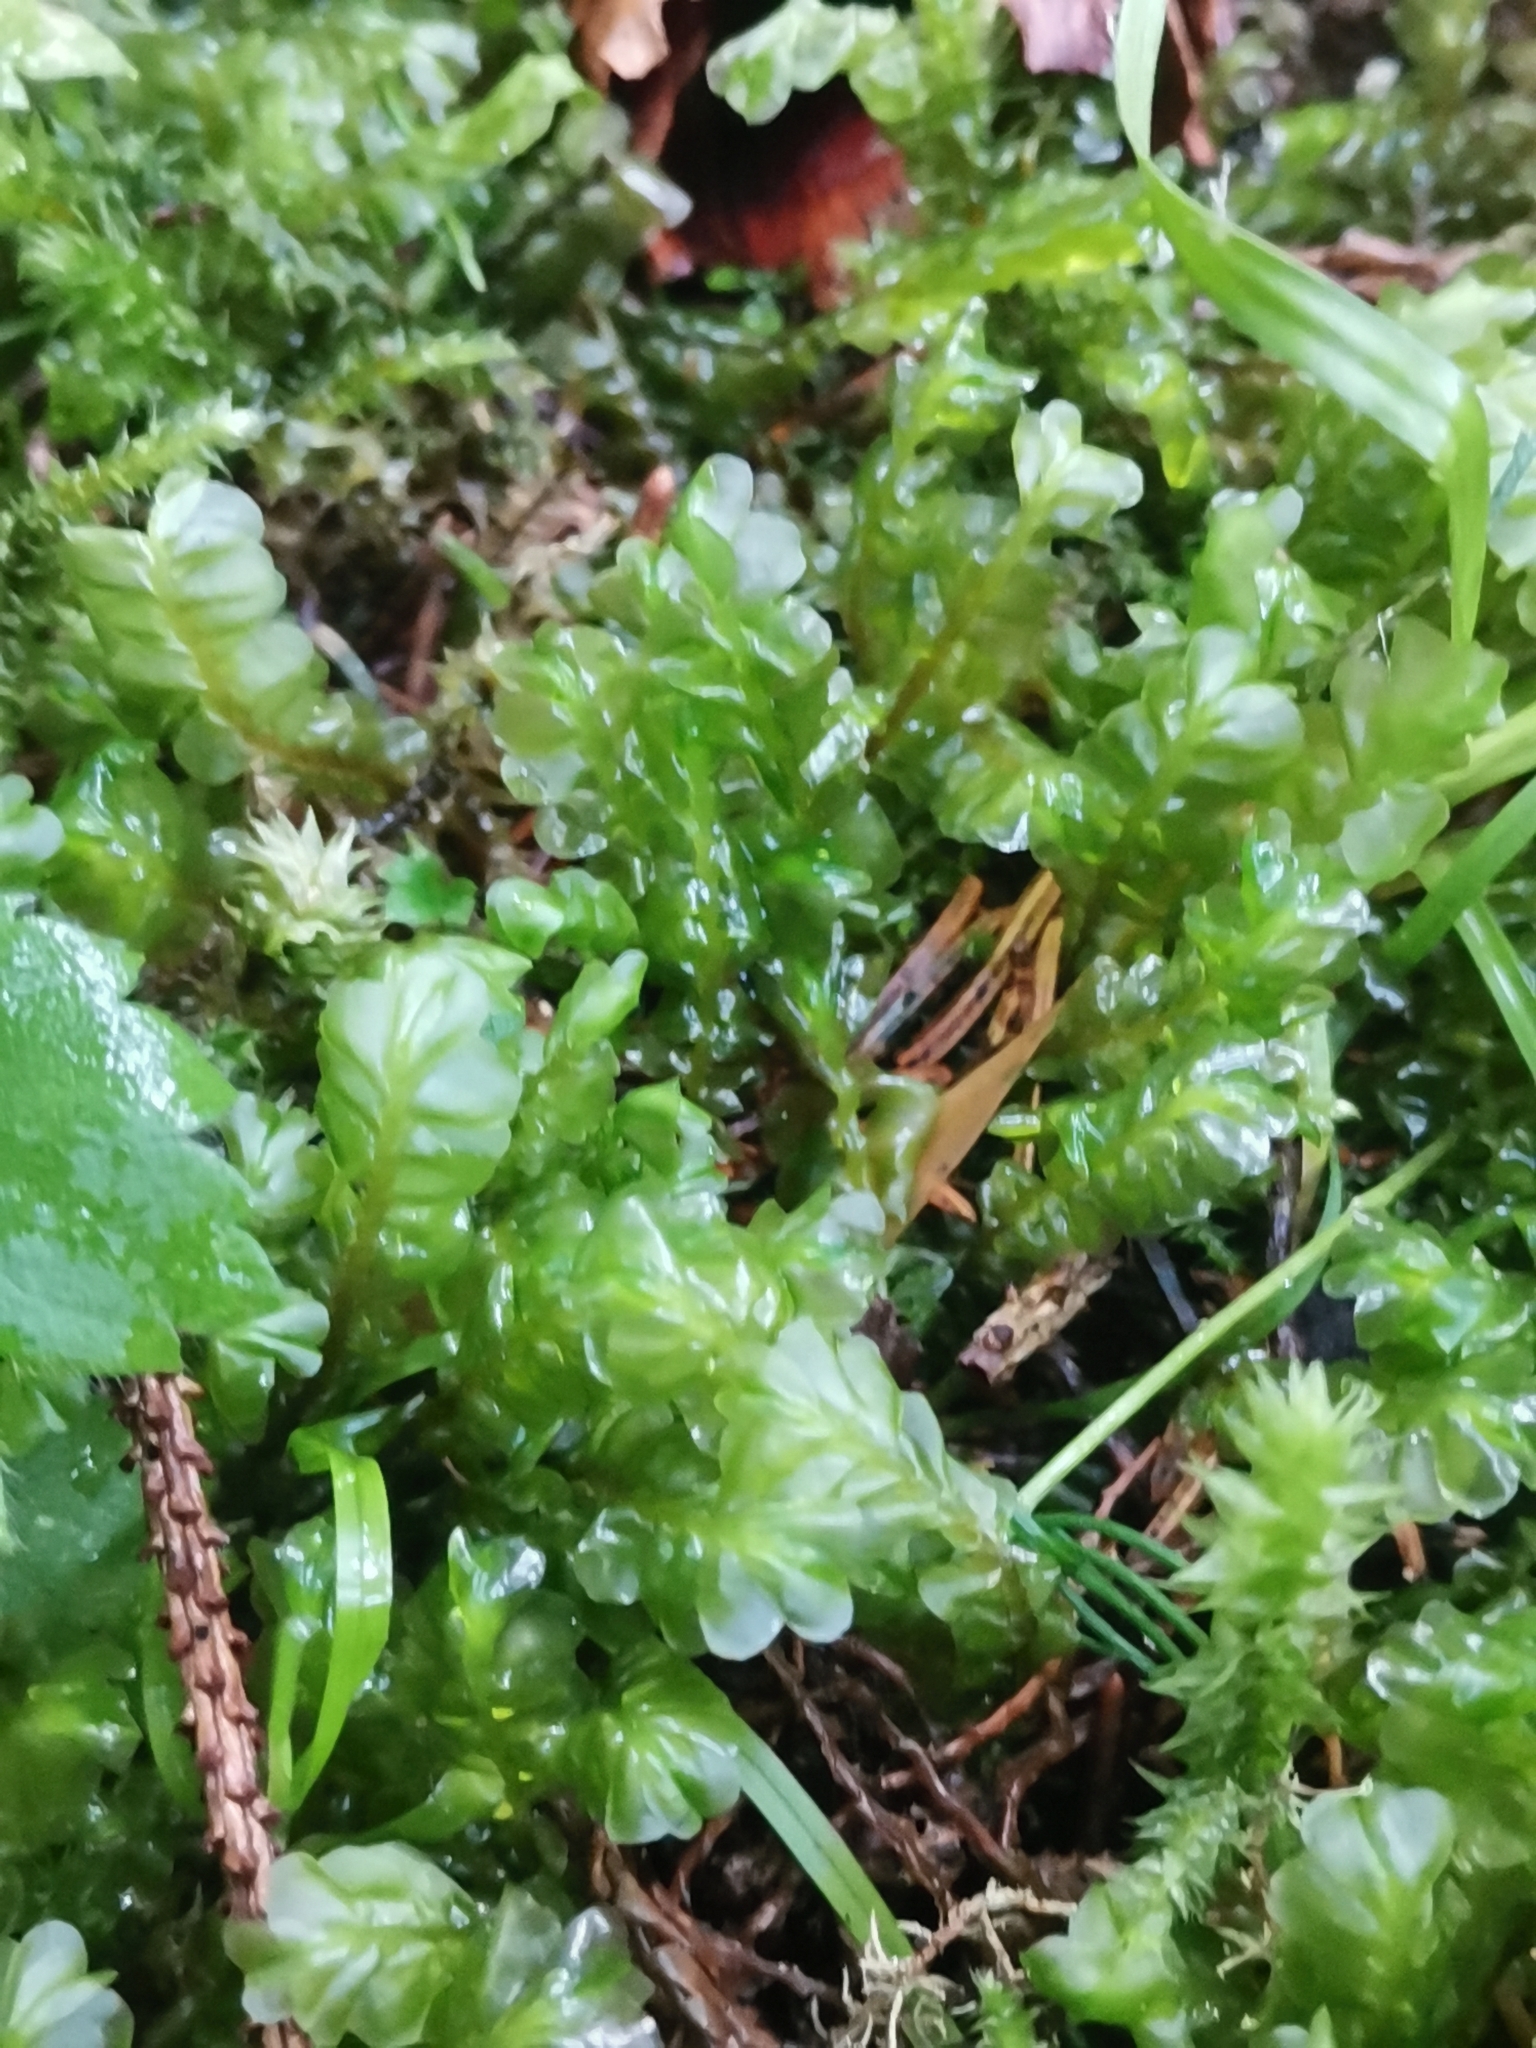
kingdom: Plantae
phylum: Marchantiophyta
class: Jungermanniopsida
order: Jungermanniales
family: Plagiochilaceae
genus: Plagiochila
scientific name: Plagiochila asplenioides
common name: Greater featherwort
